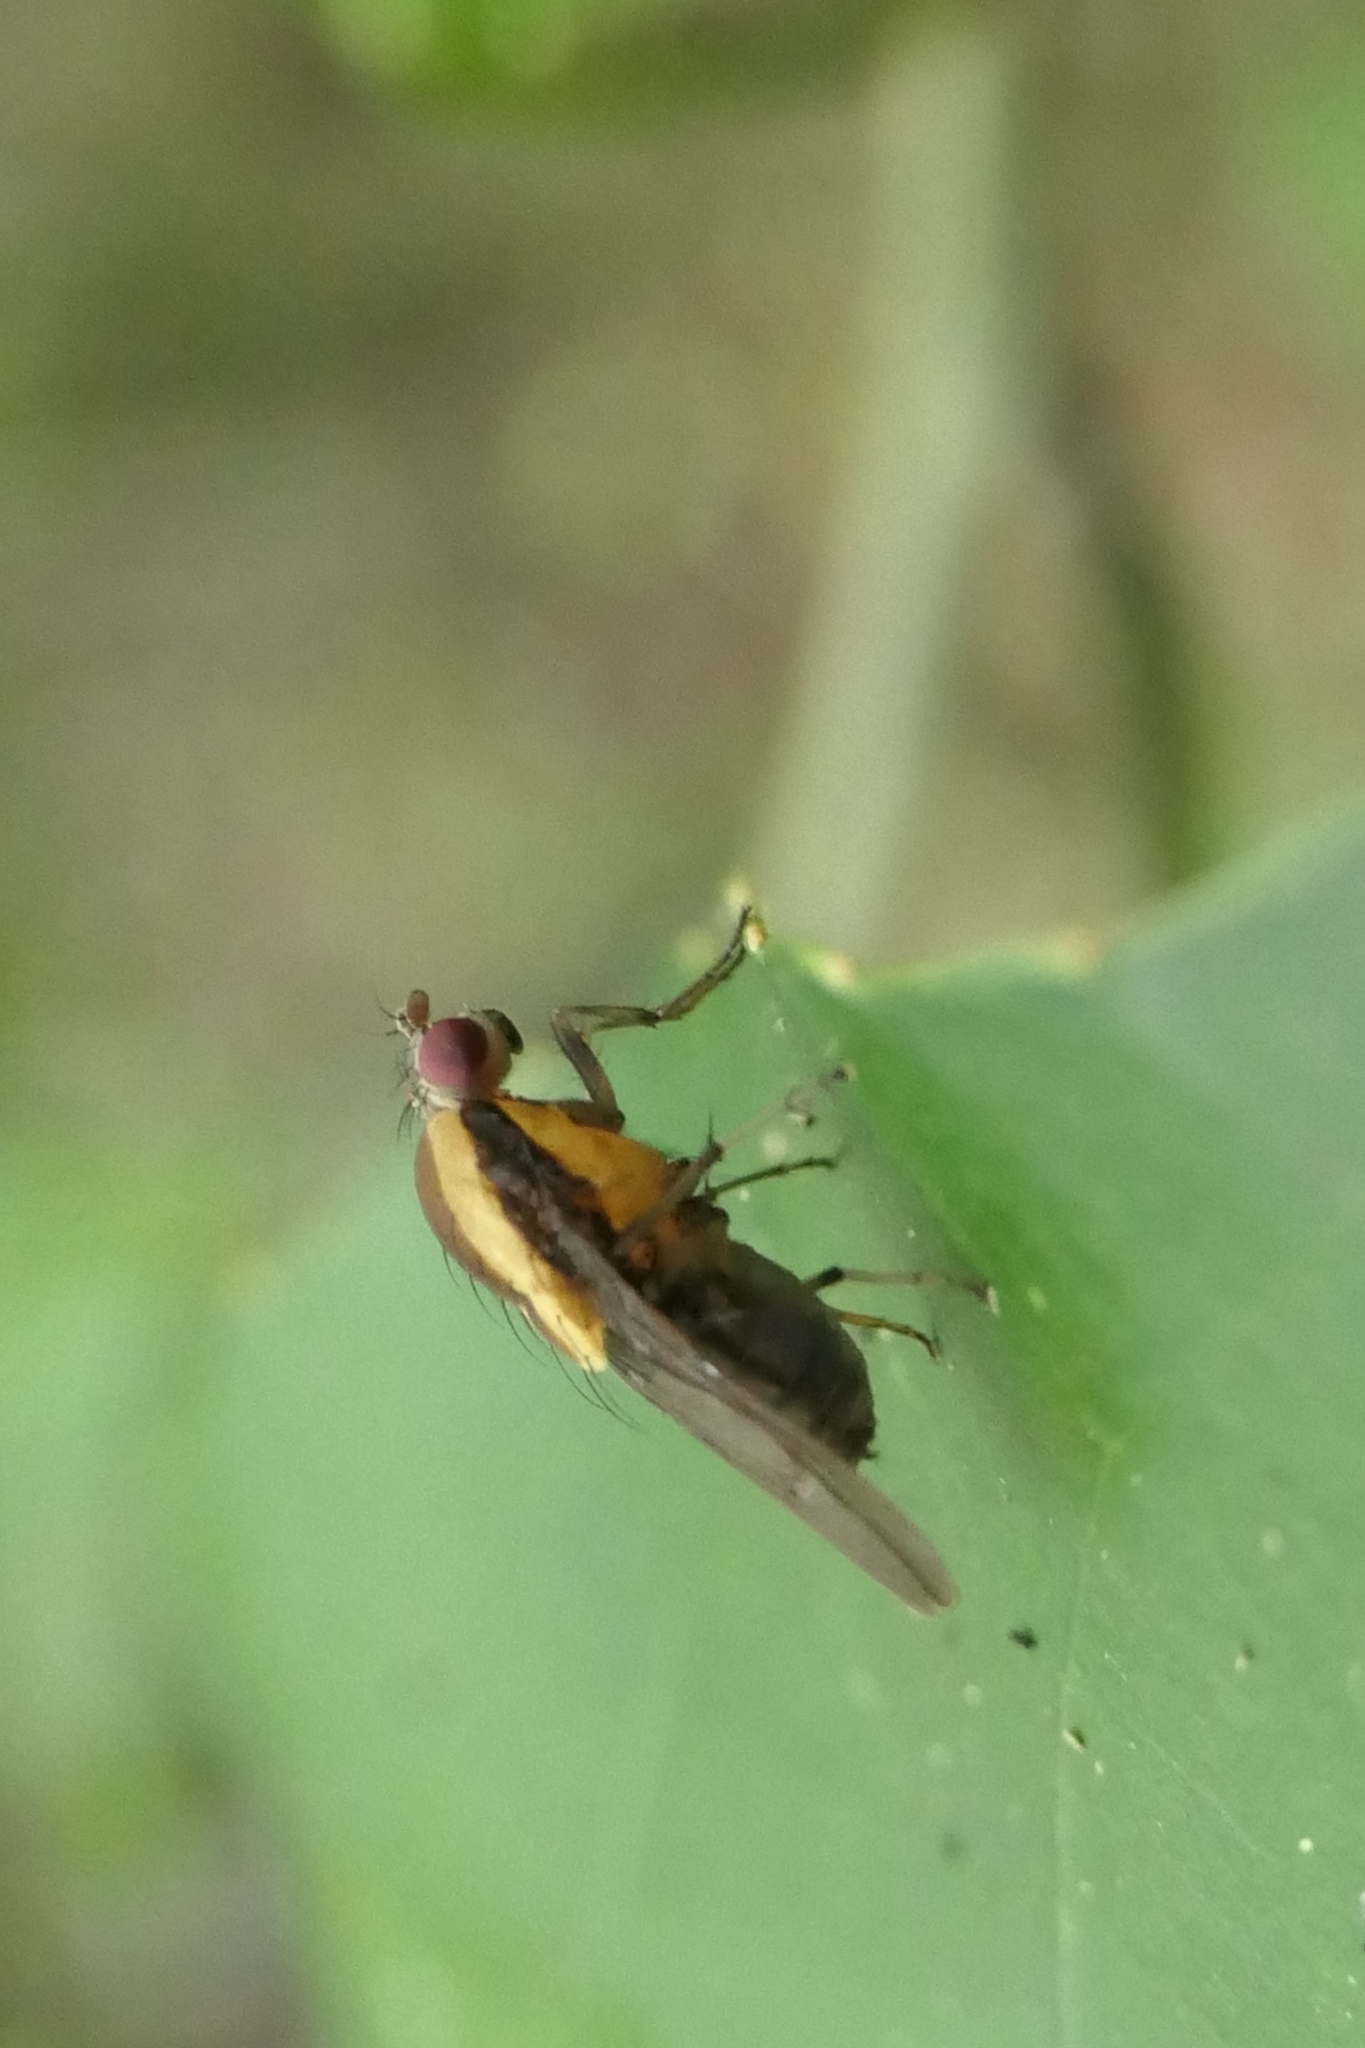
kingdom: Animalia
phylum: Arthropoda
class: Insecta
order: Diptera
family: Heleomyzidae
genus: Allophylopsis
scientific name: Allophylopsis scutellata
